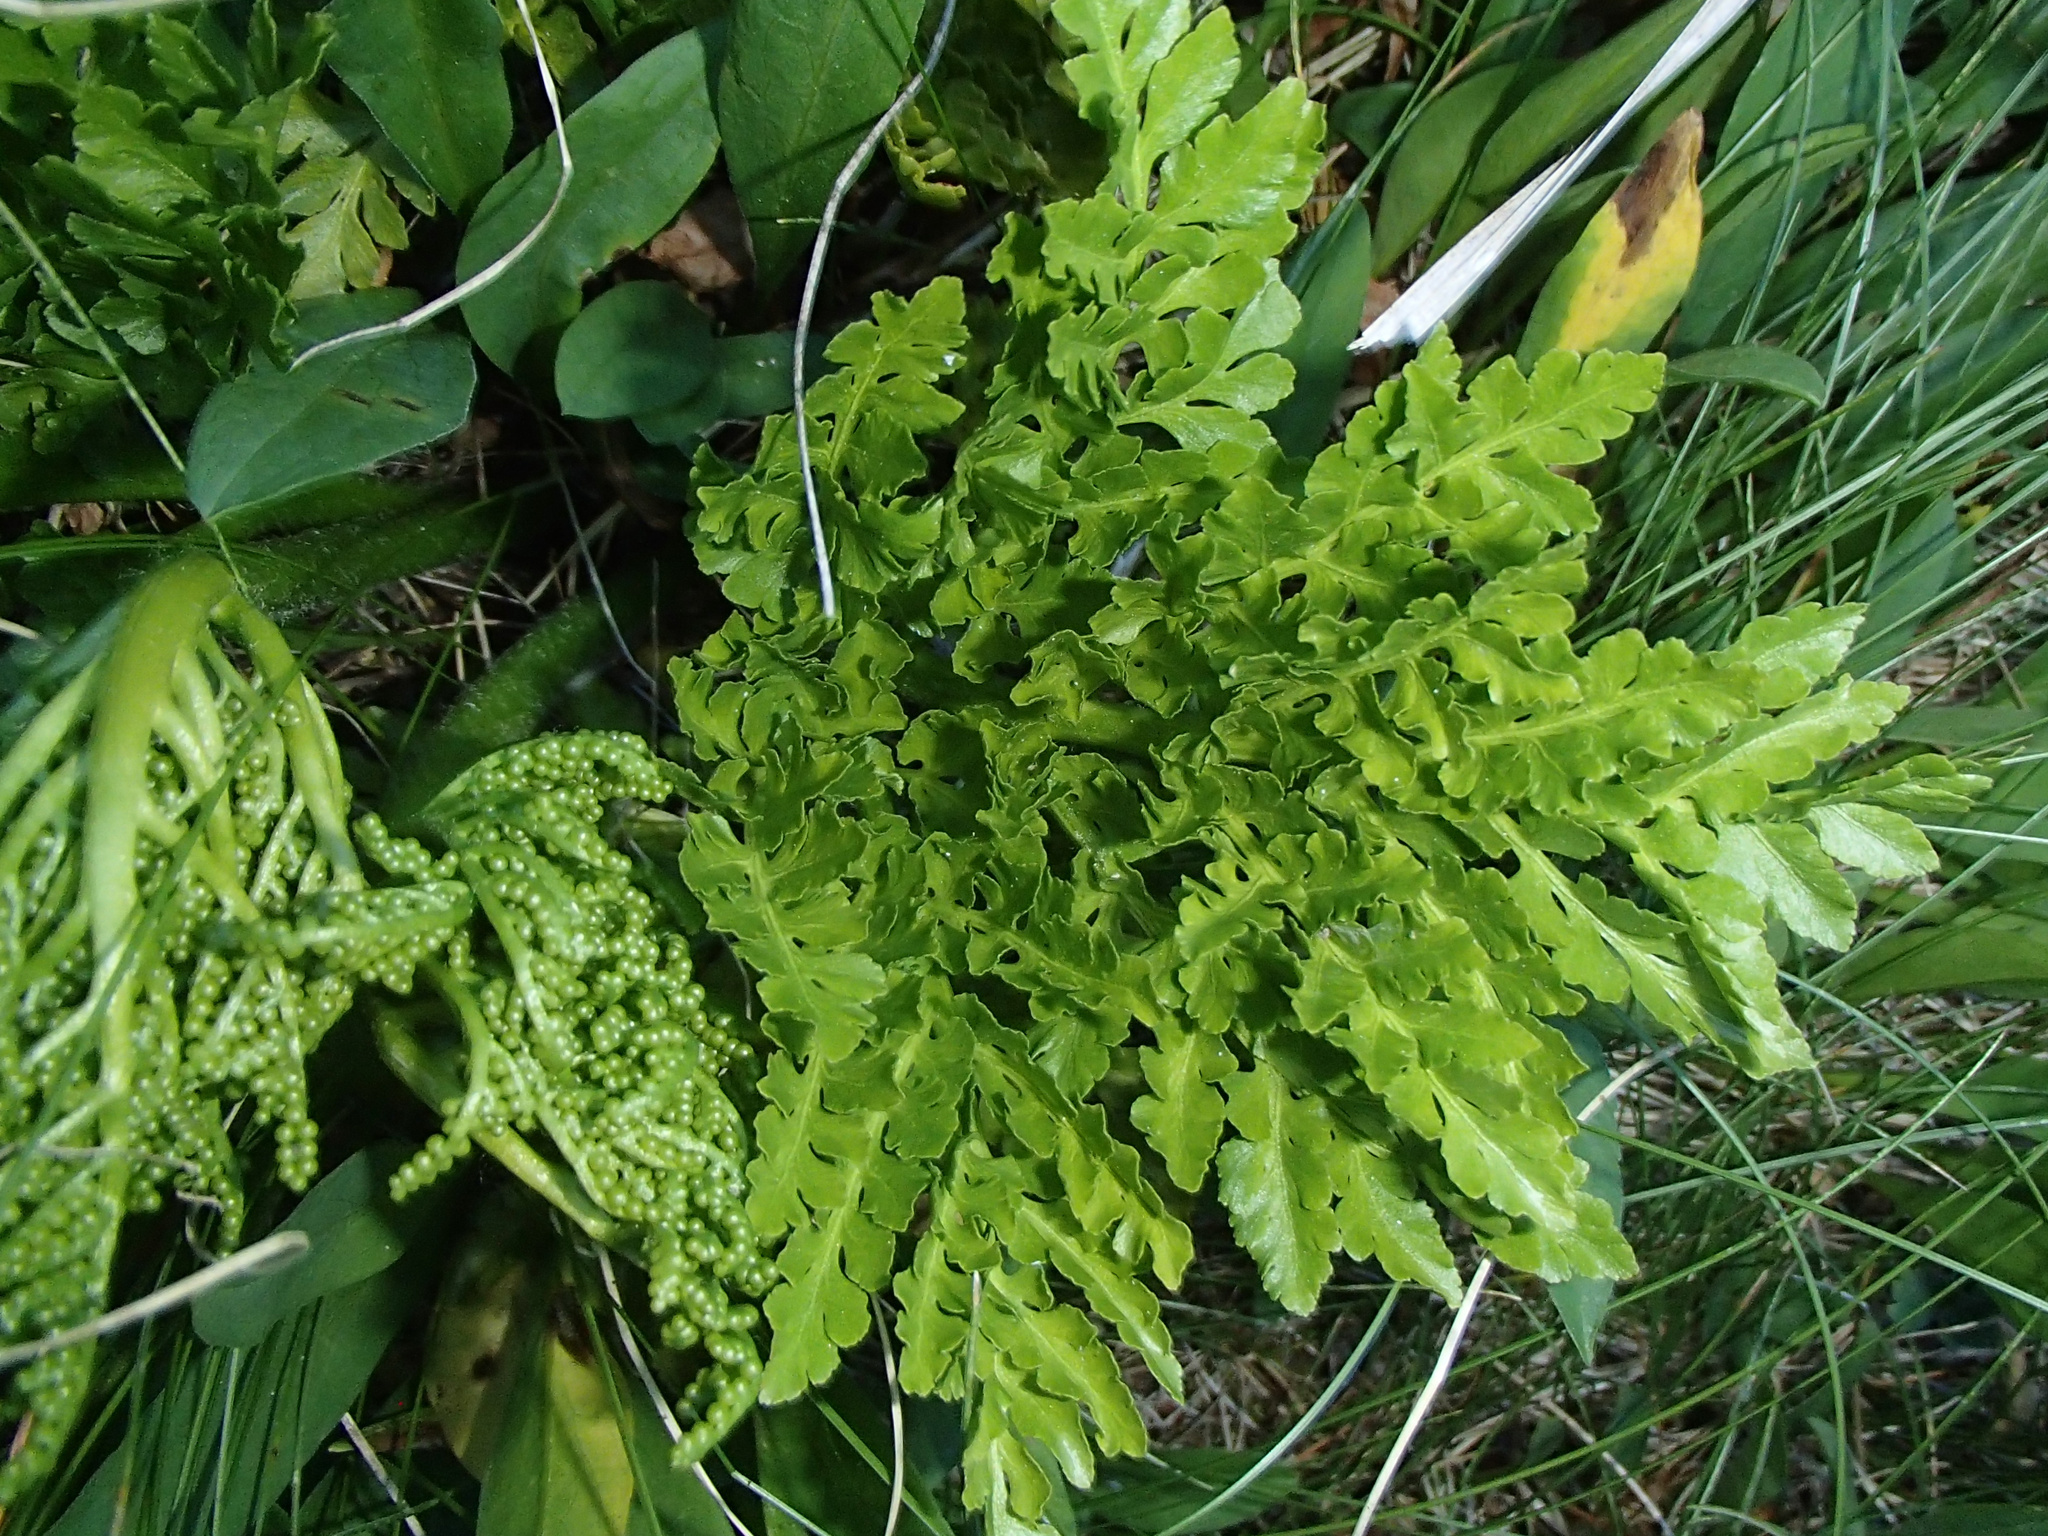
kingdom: Plantae
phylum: Tracheophyta
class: Polypodiopsida
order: Ophioglossales
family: Ophioglossaceae
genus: Sceptridium
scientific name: Sceptridium multifidum
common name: Leathery grape fern
